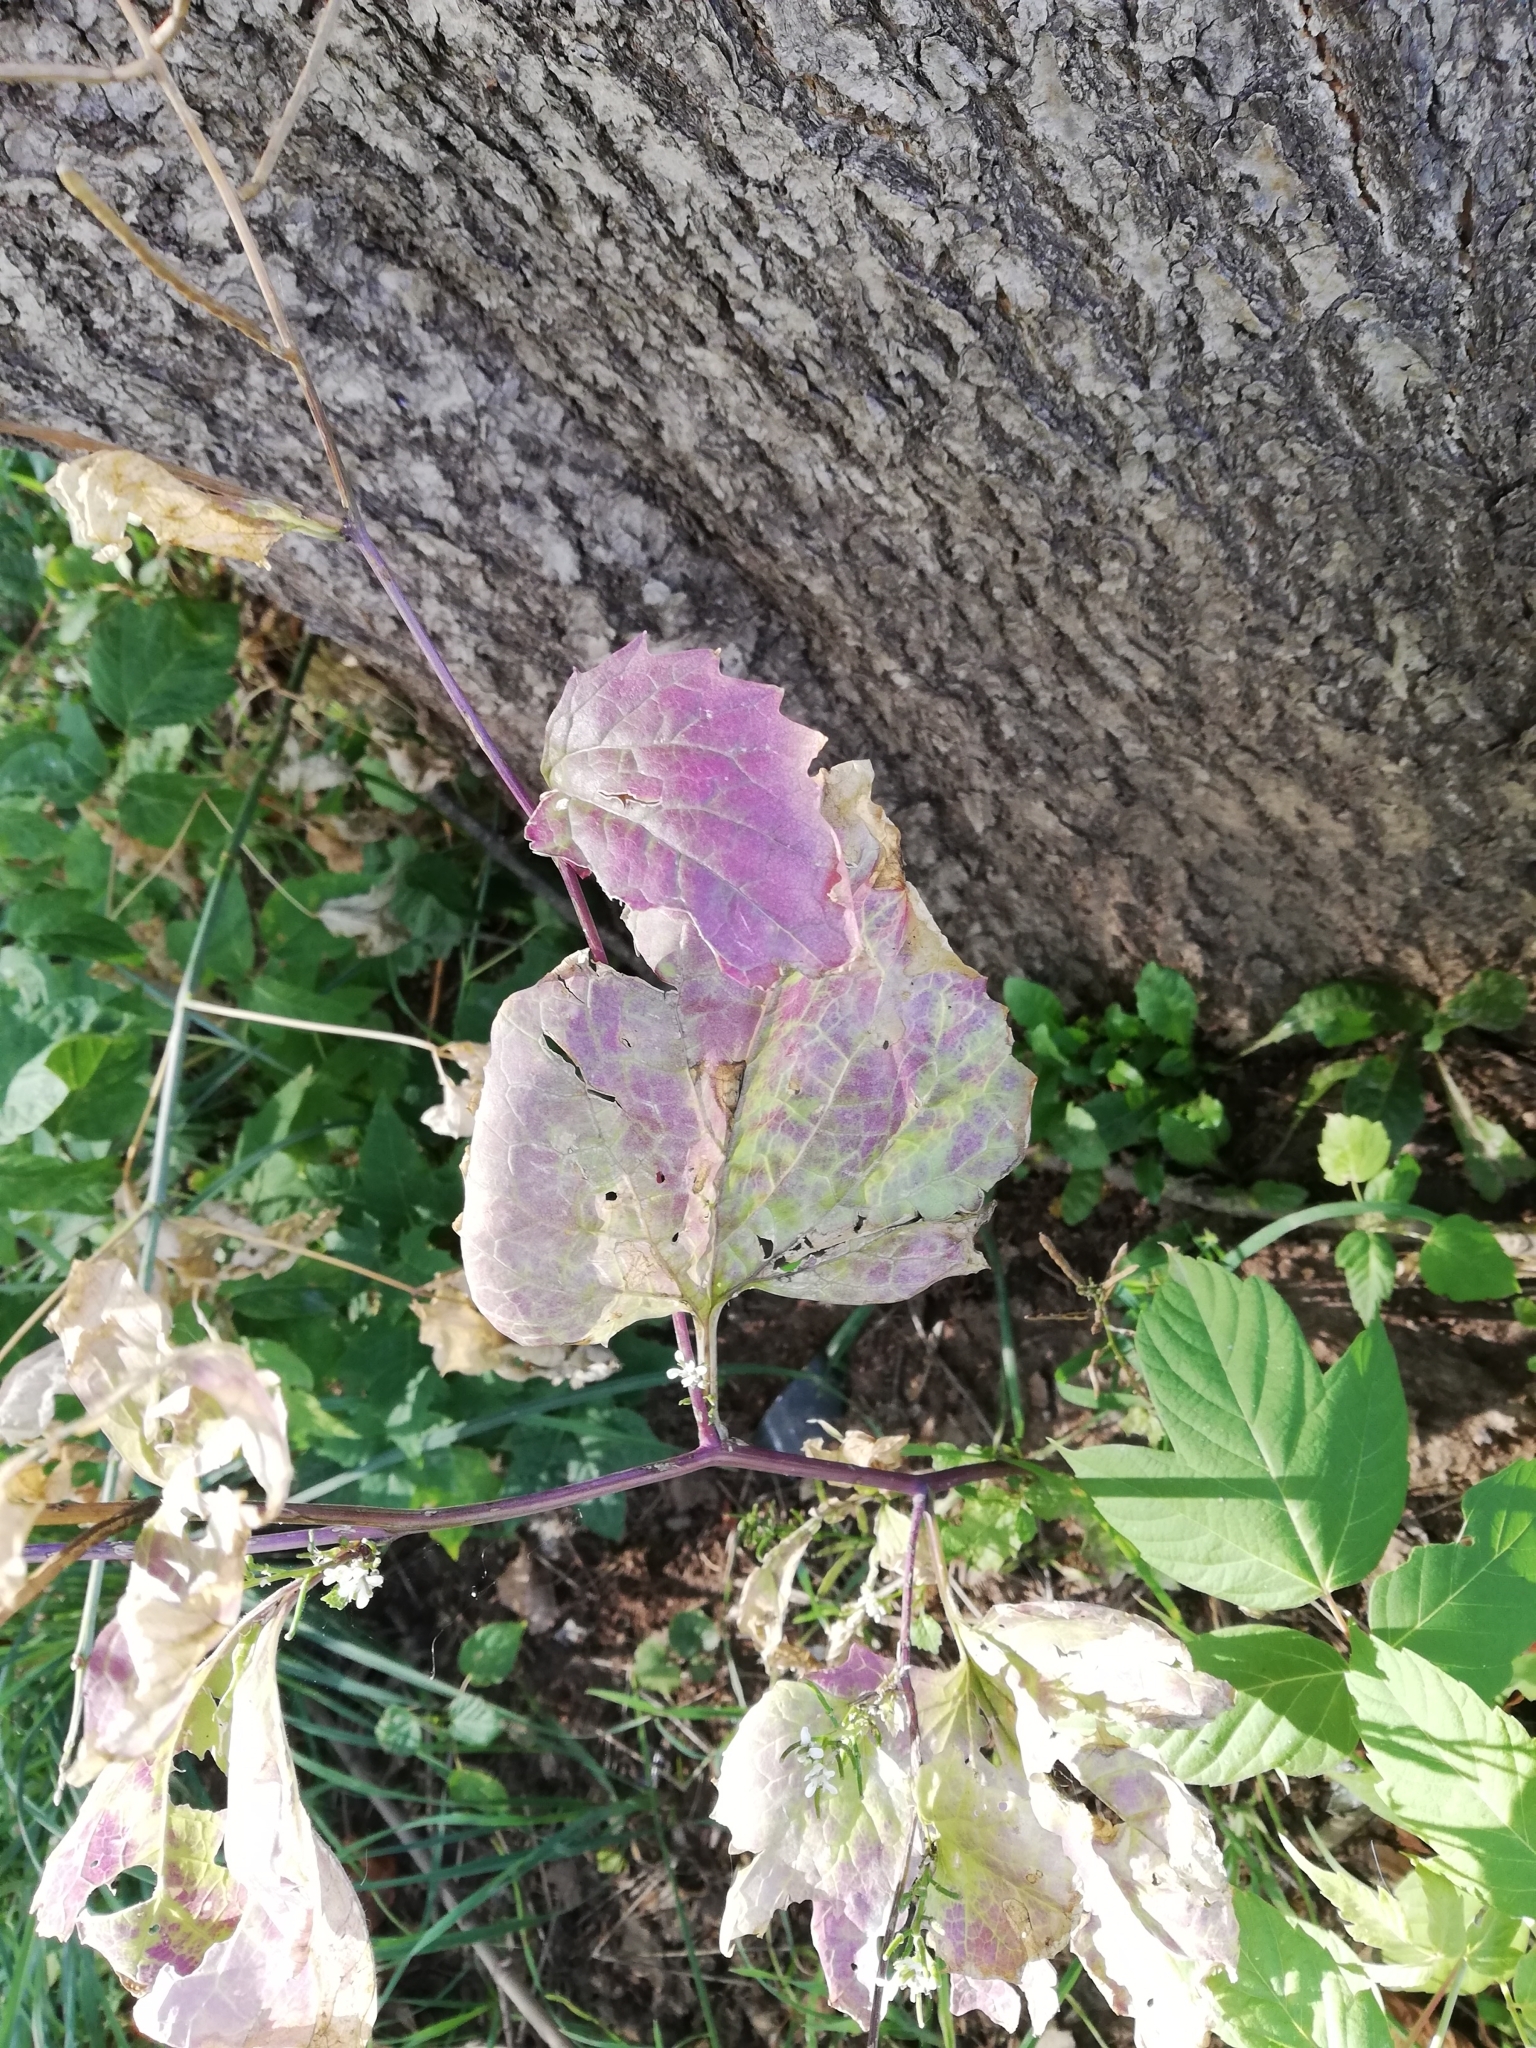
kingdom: Plantae
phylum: Tracheophyta
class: Magnoliopsida
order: Brassicales
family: Brassicaceae
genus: Alliaria
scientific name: Alliaria petiolata
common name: Garlic mustard
